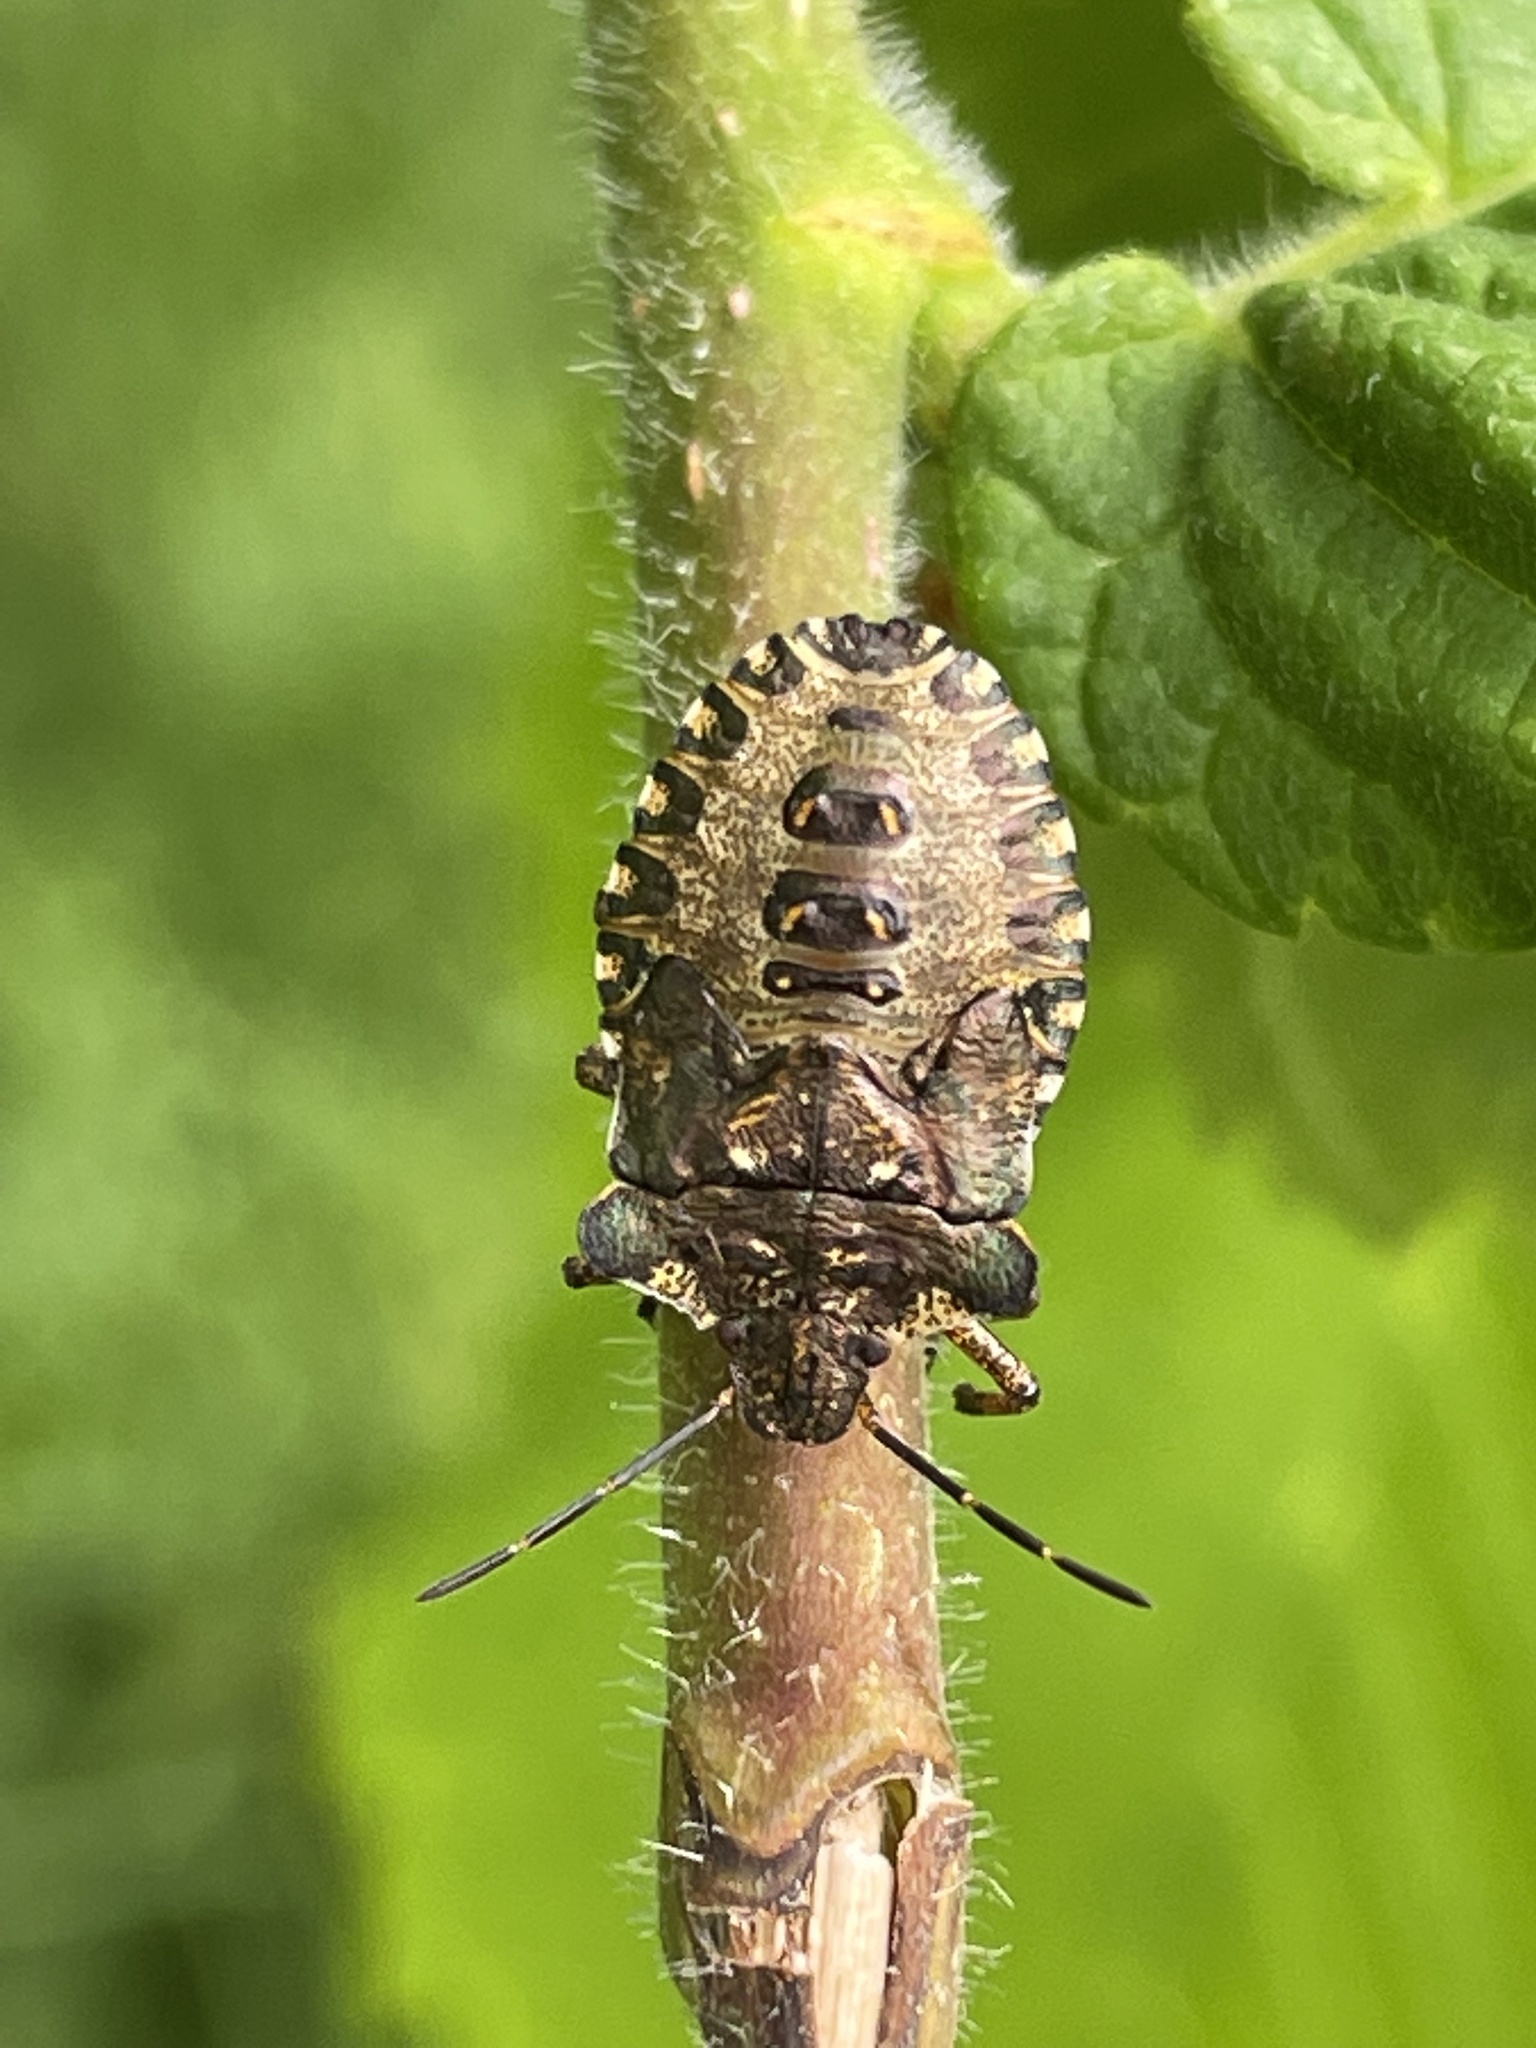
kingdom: Animalia
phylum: Arthropoda
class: Insecta
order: Hemiptera
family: Pentatomidae
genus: Pentatoma
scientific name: Pentatoma rufipes
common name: Forest bug
